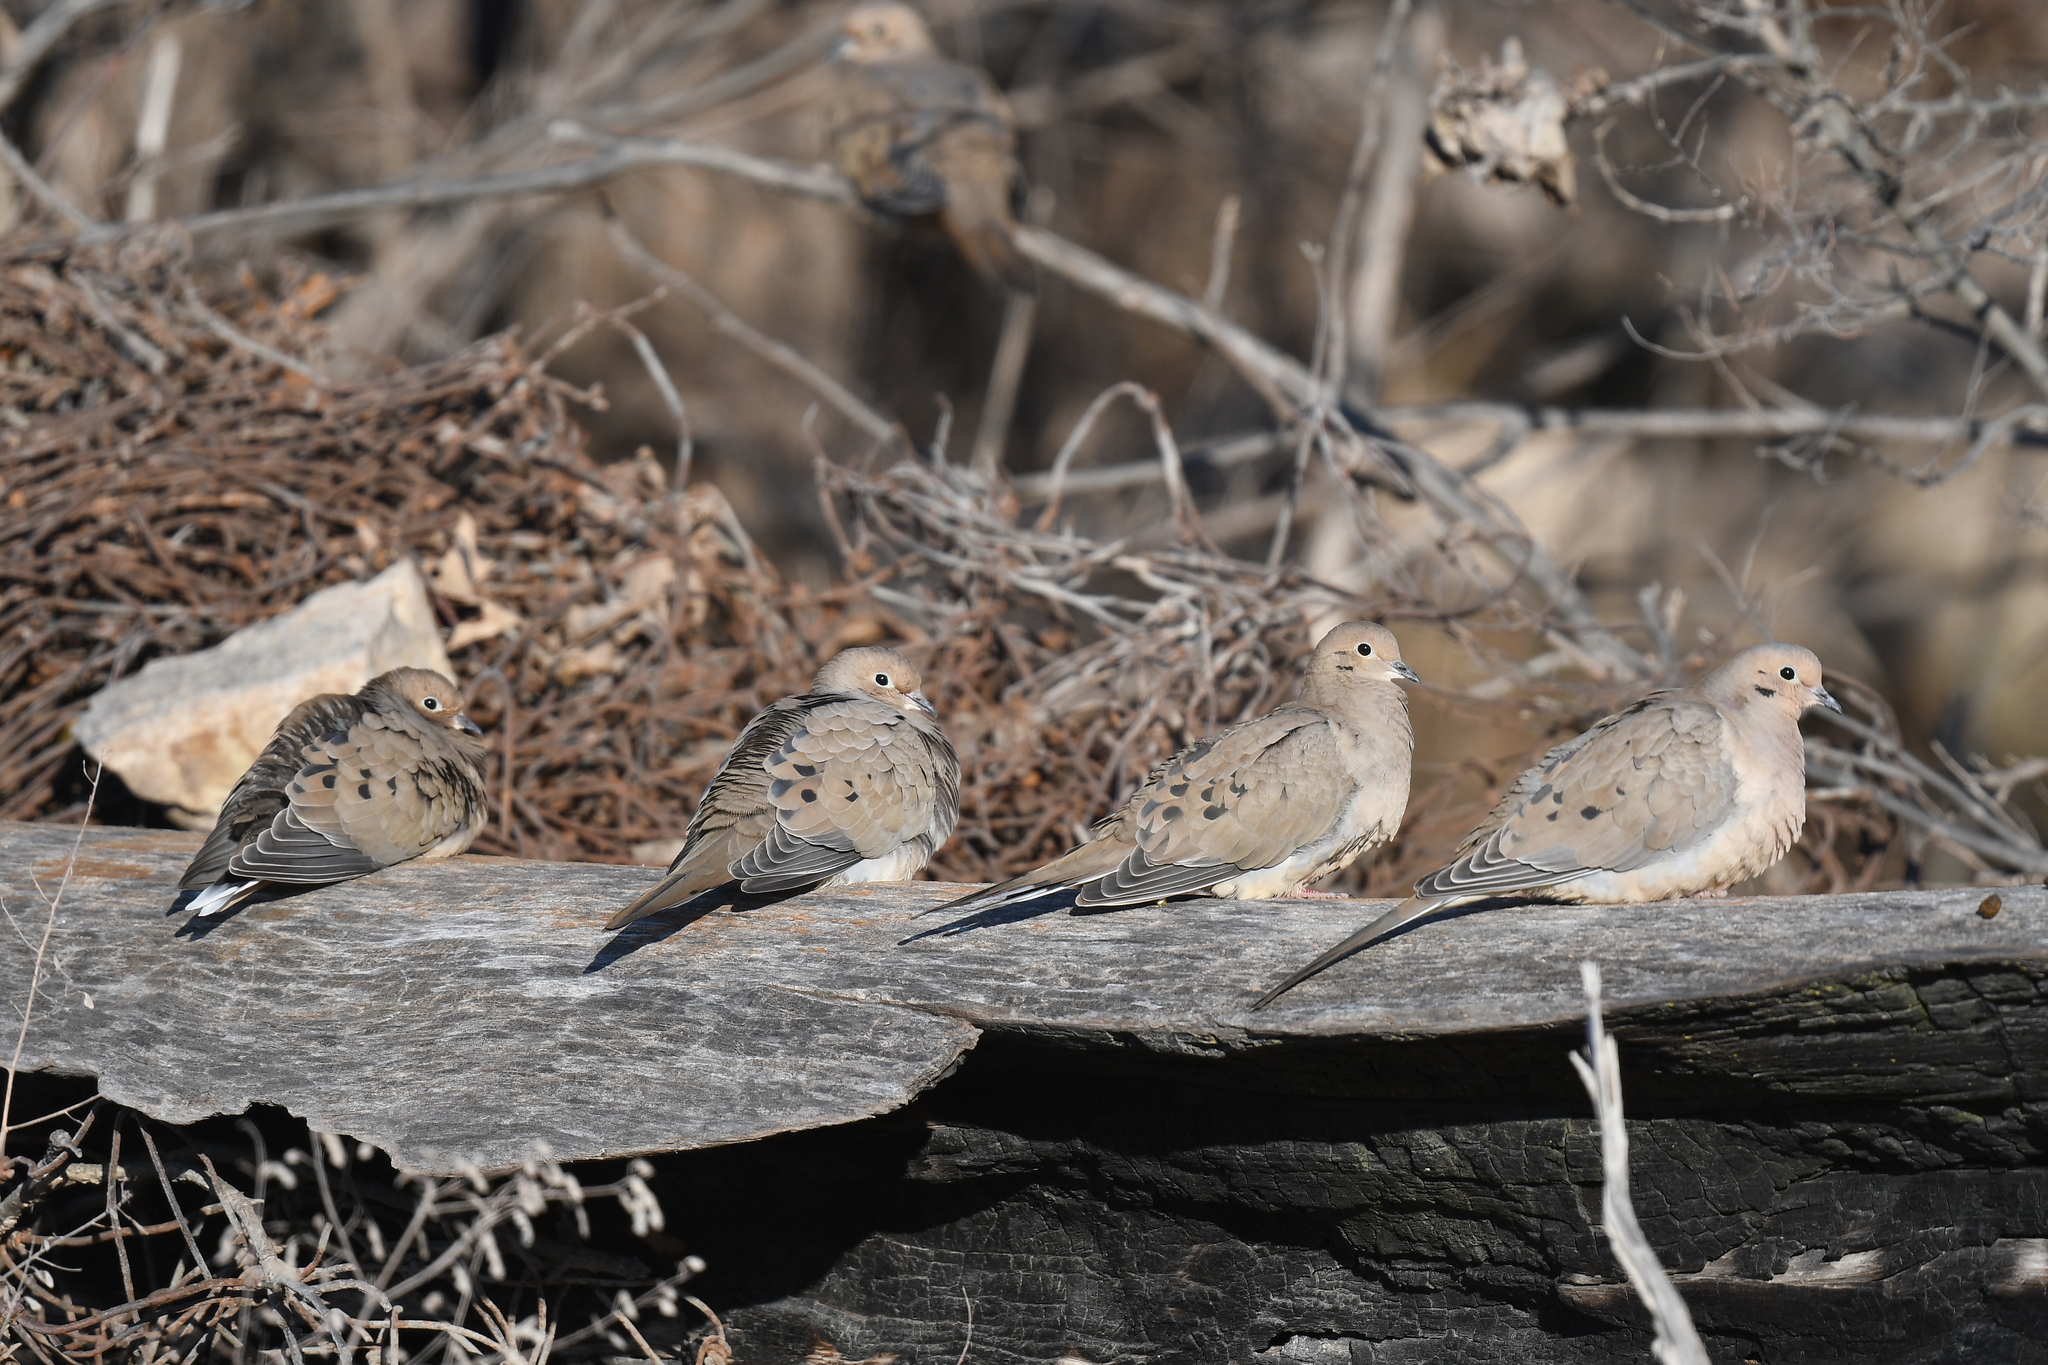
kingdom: Animalia
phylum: Chordata
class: Aves
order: Columbiformes
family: Columbidae
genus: Zenaida
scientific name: Zenaida macroura
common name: Mourning dove
